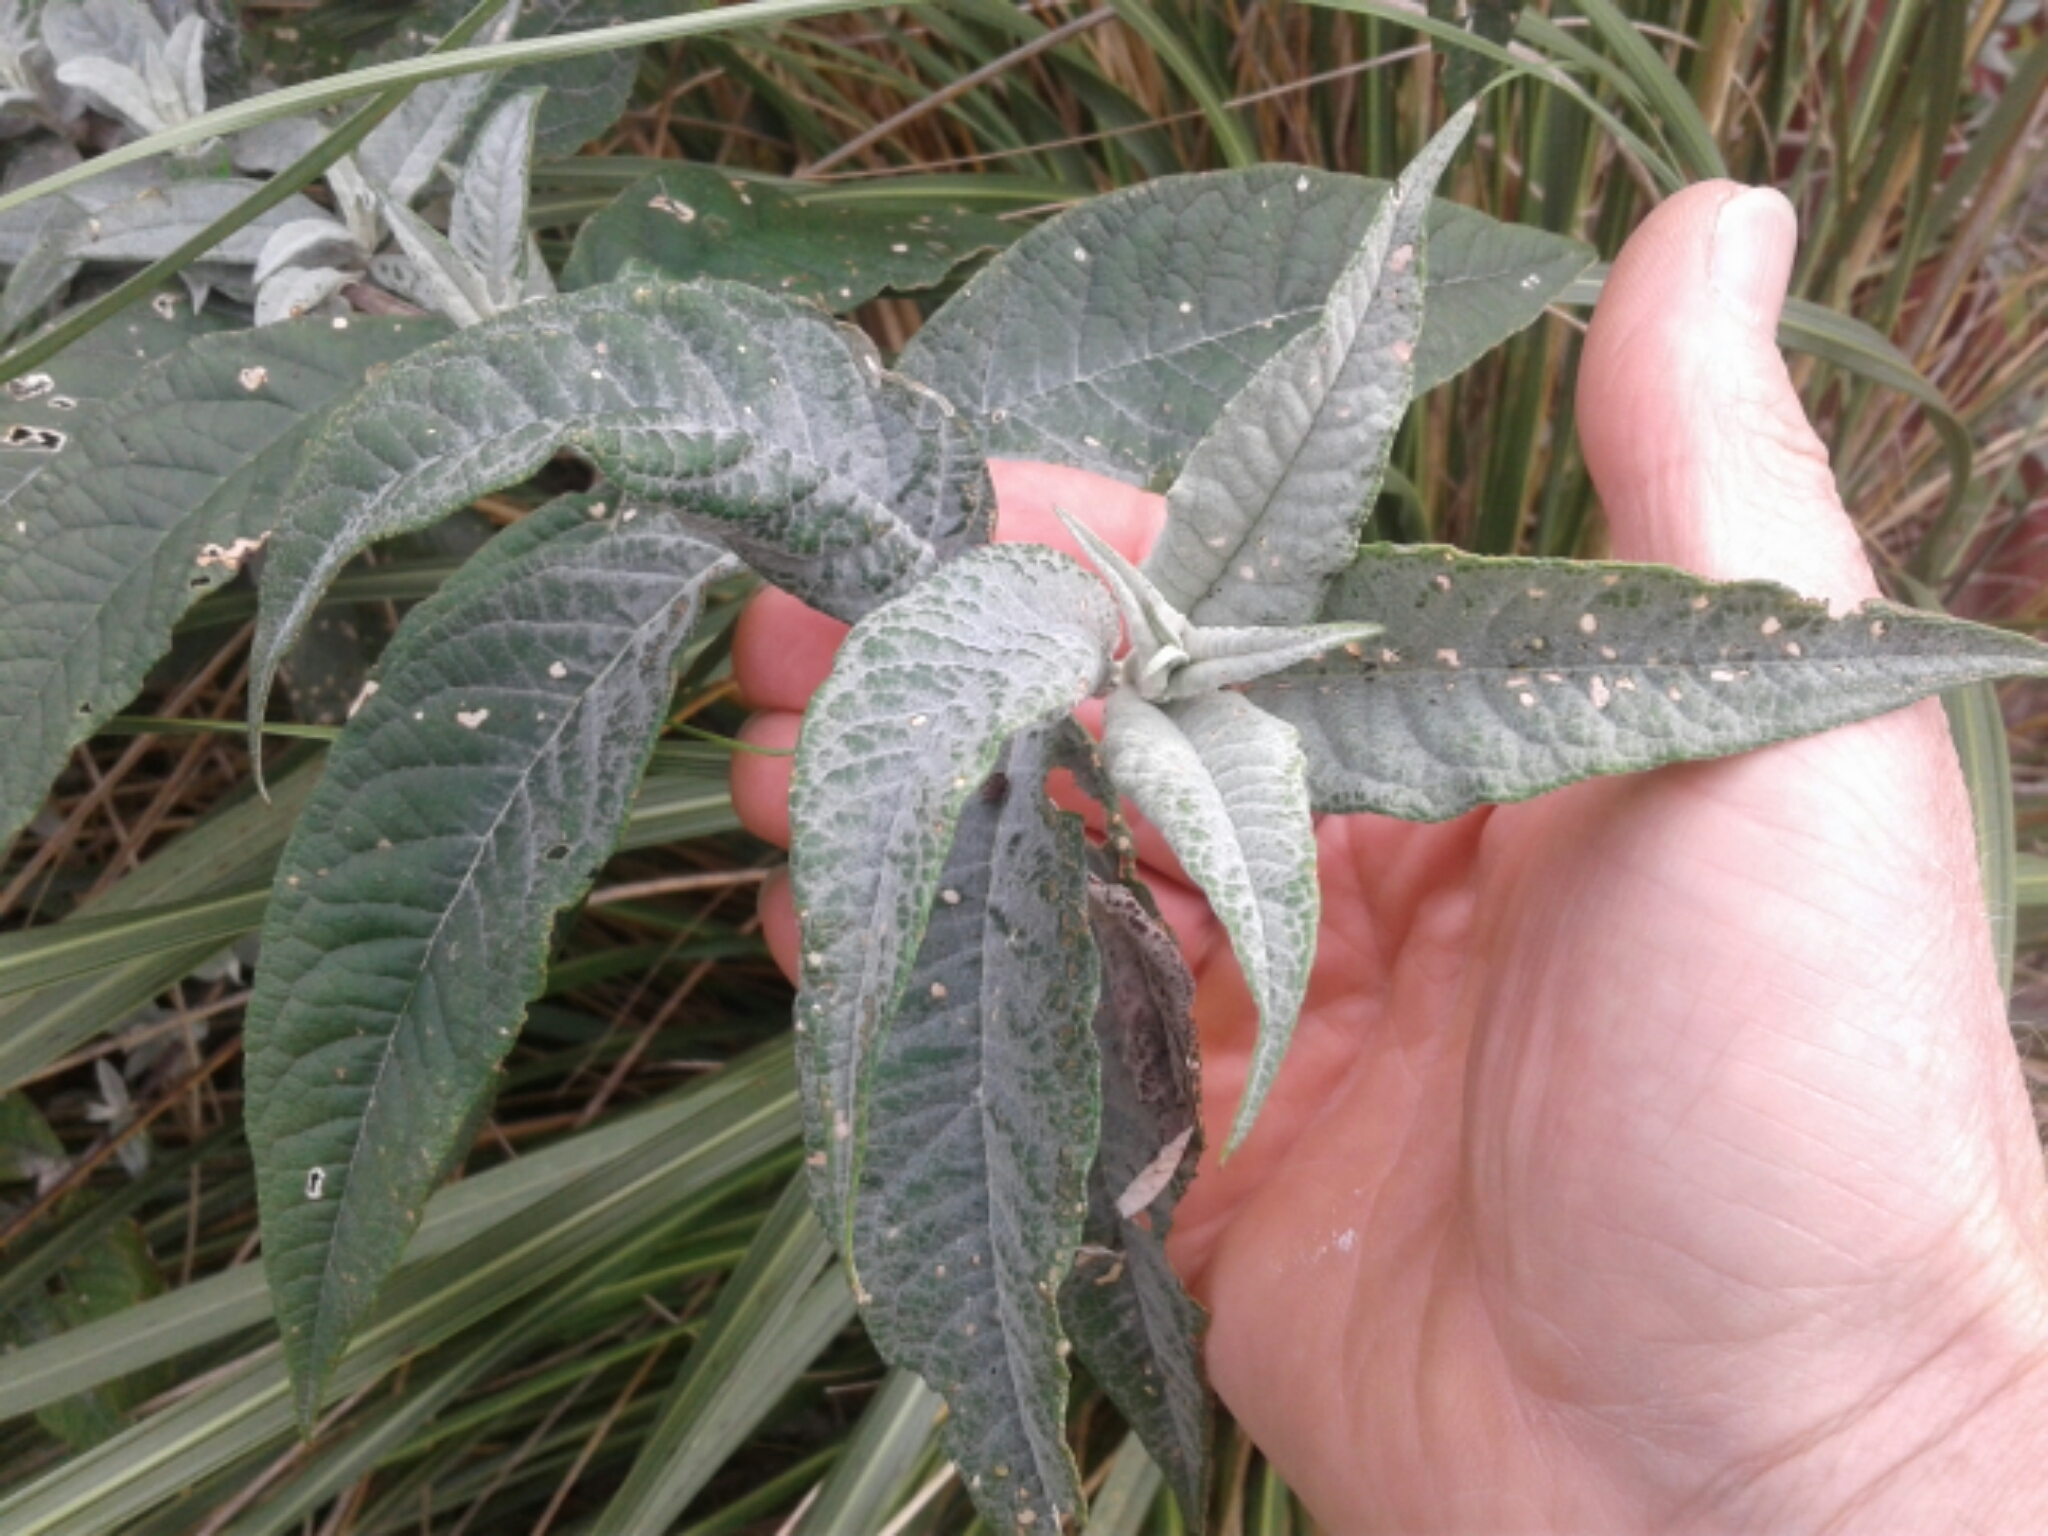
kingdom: Plantae
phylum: Tracheophyta
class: Magnoliopsida
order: Lamiales
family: Scrophulariaceae
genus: Buddleja
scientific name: Buddleja davidii
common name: Butterfly-bush
